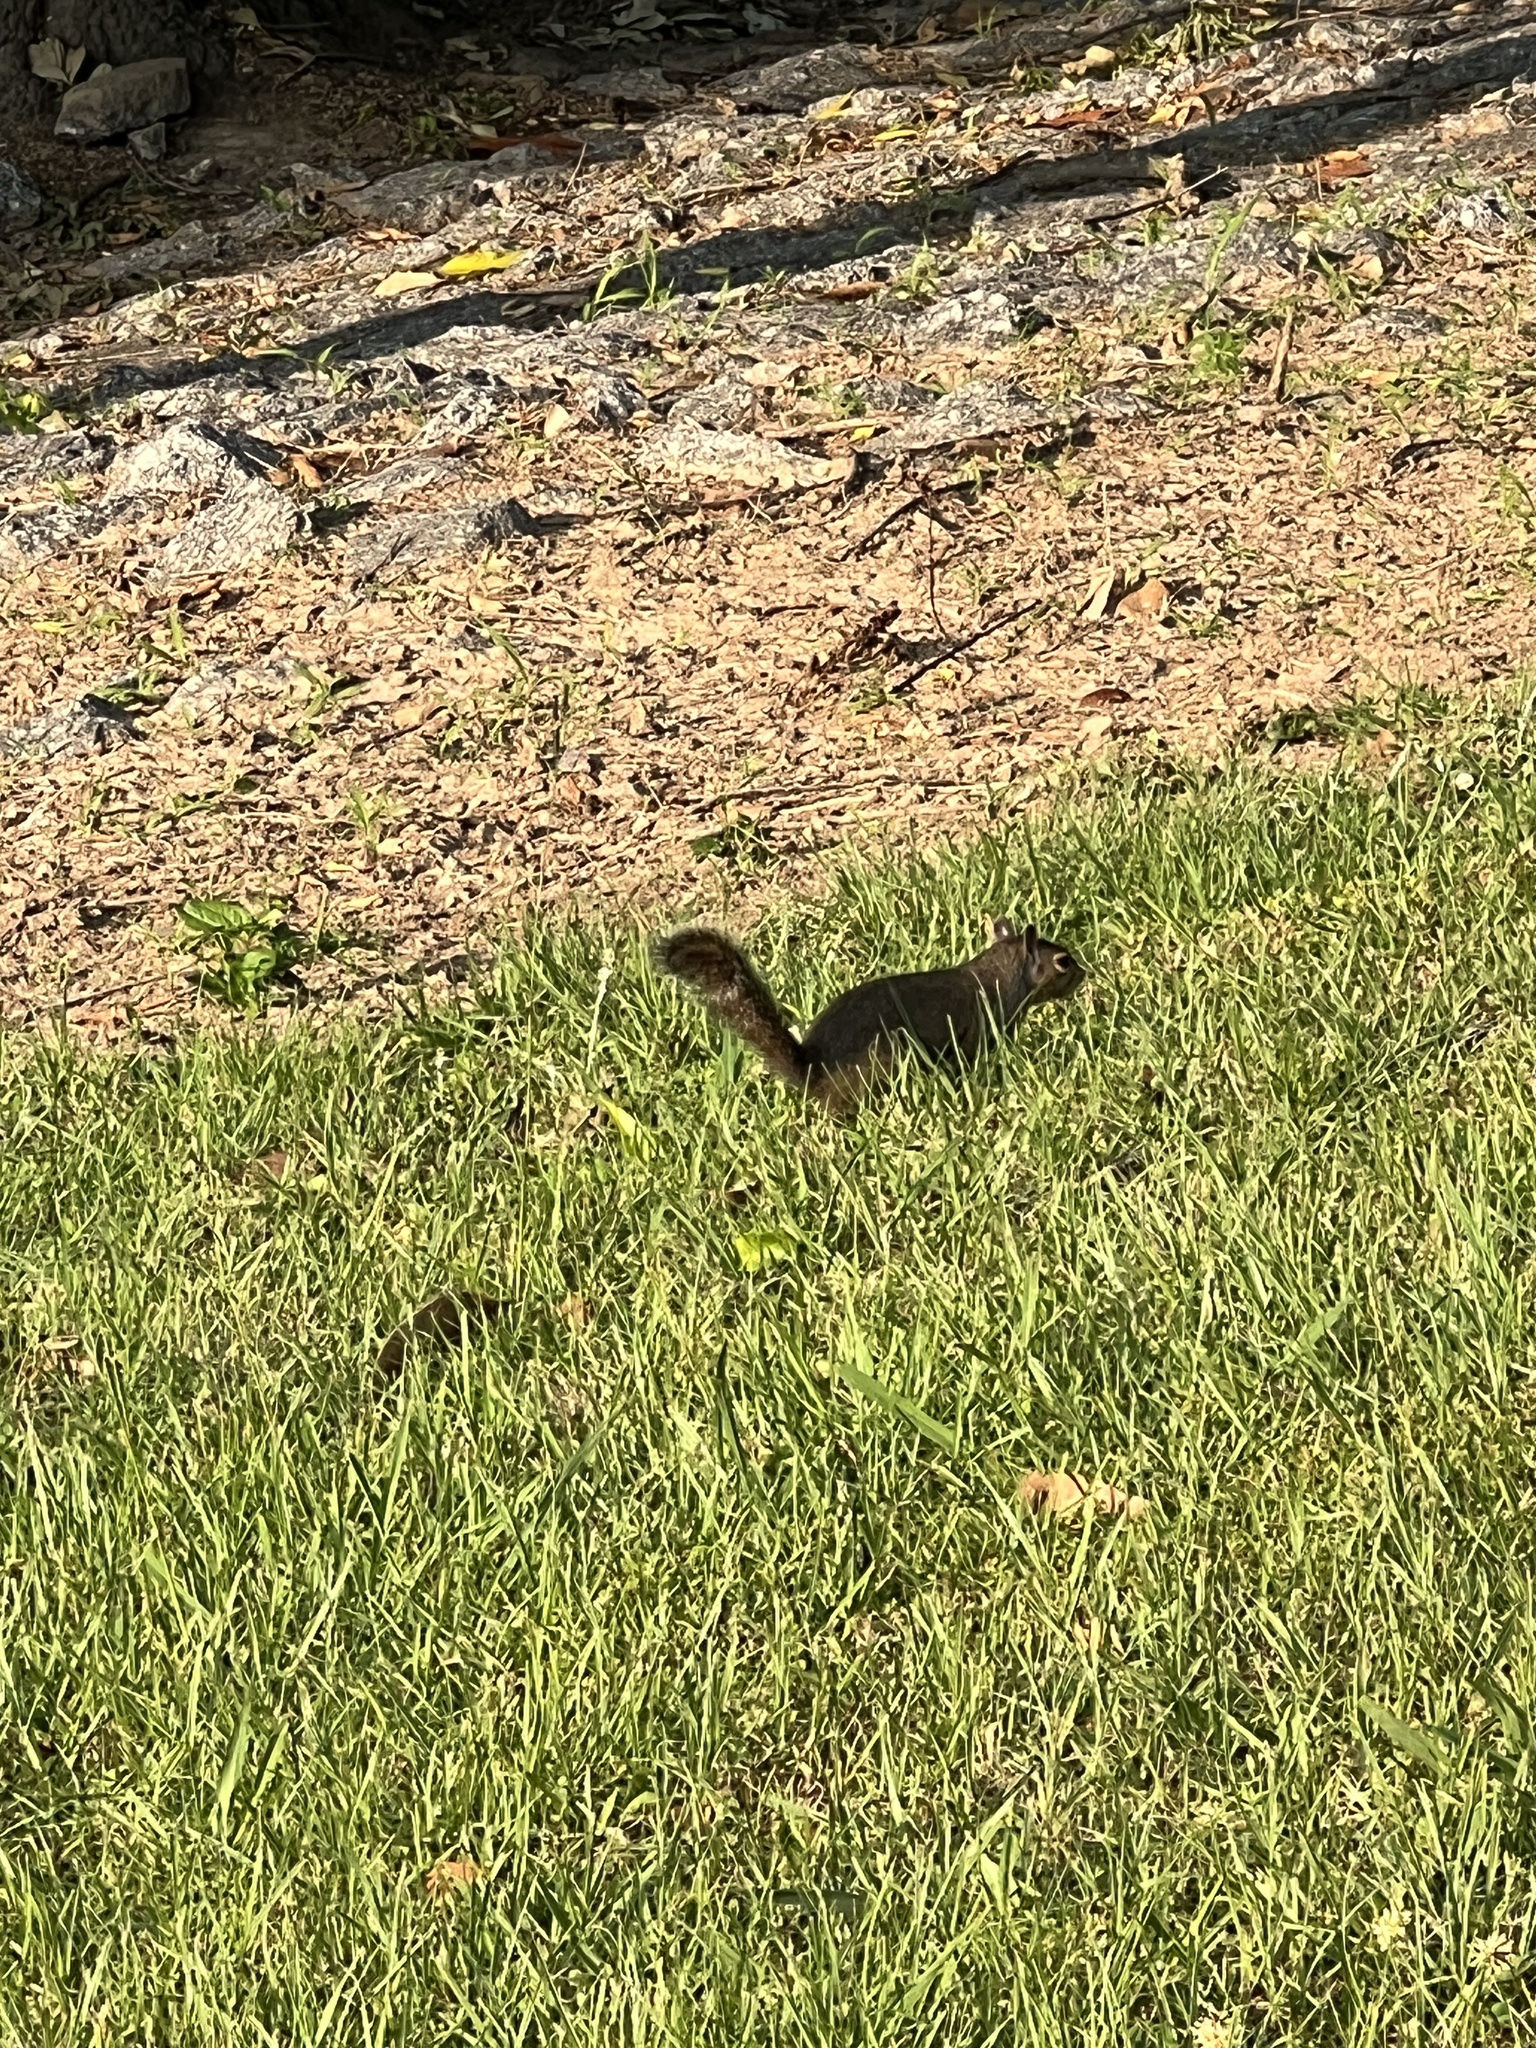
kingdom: Animalia
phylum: Chordata
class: Mammalia
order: Rodentia
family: Sciuridae
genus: Sciurus
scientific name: Sciurus carolinensis
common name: Eastern gray squirrel
